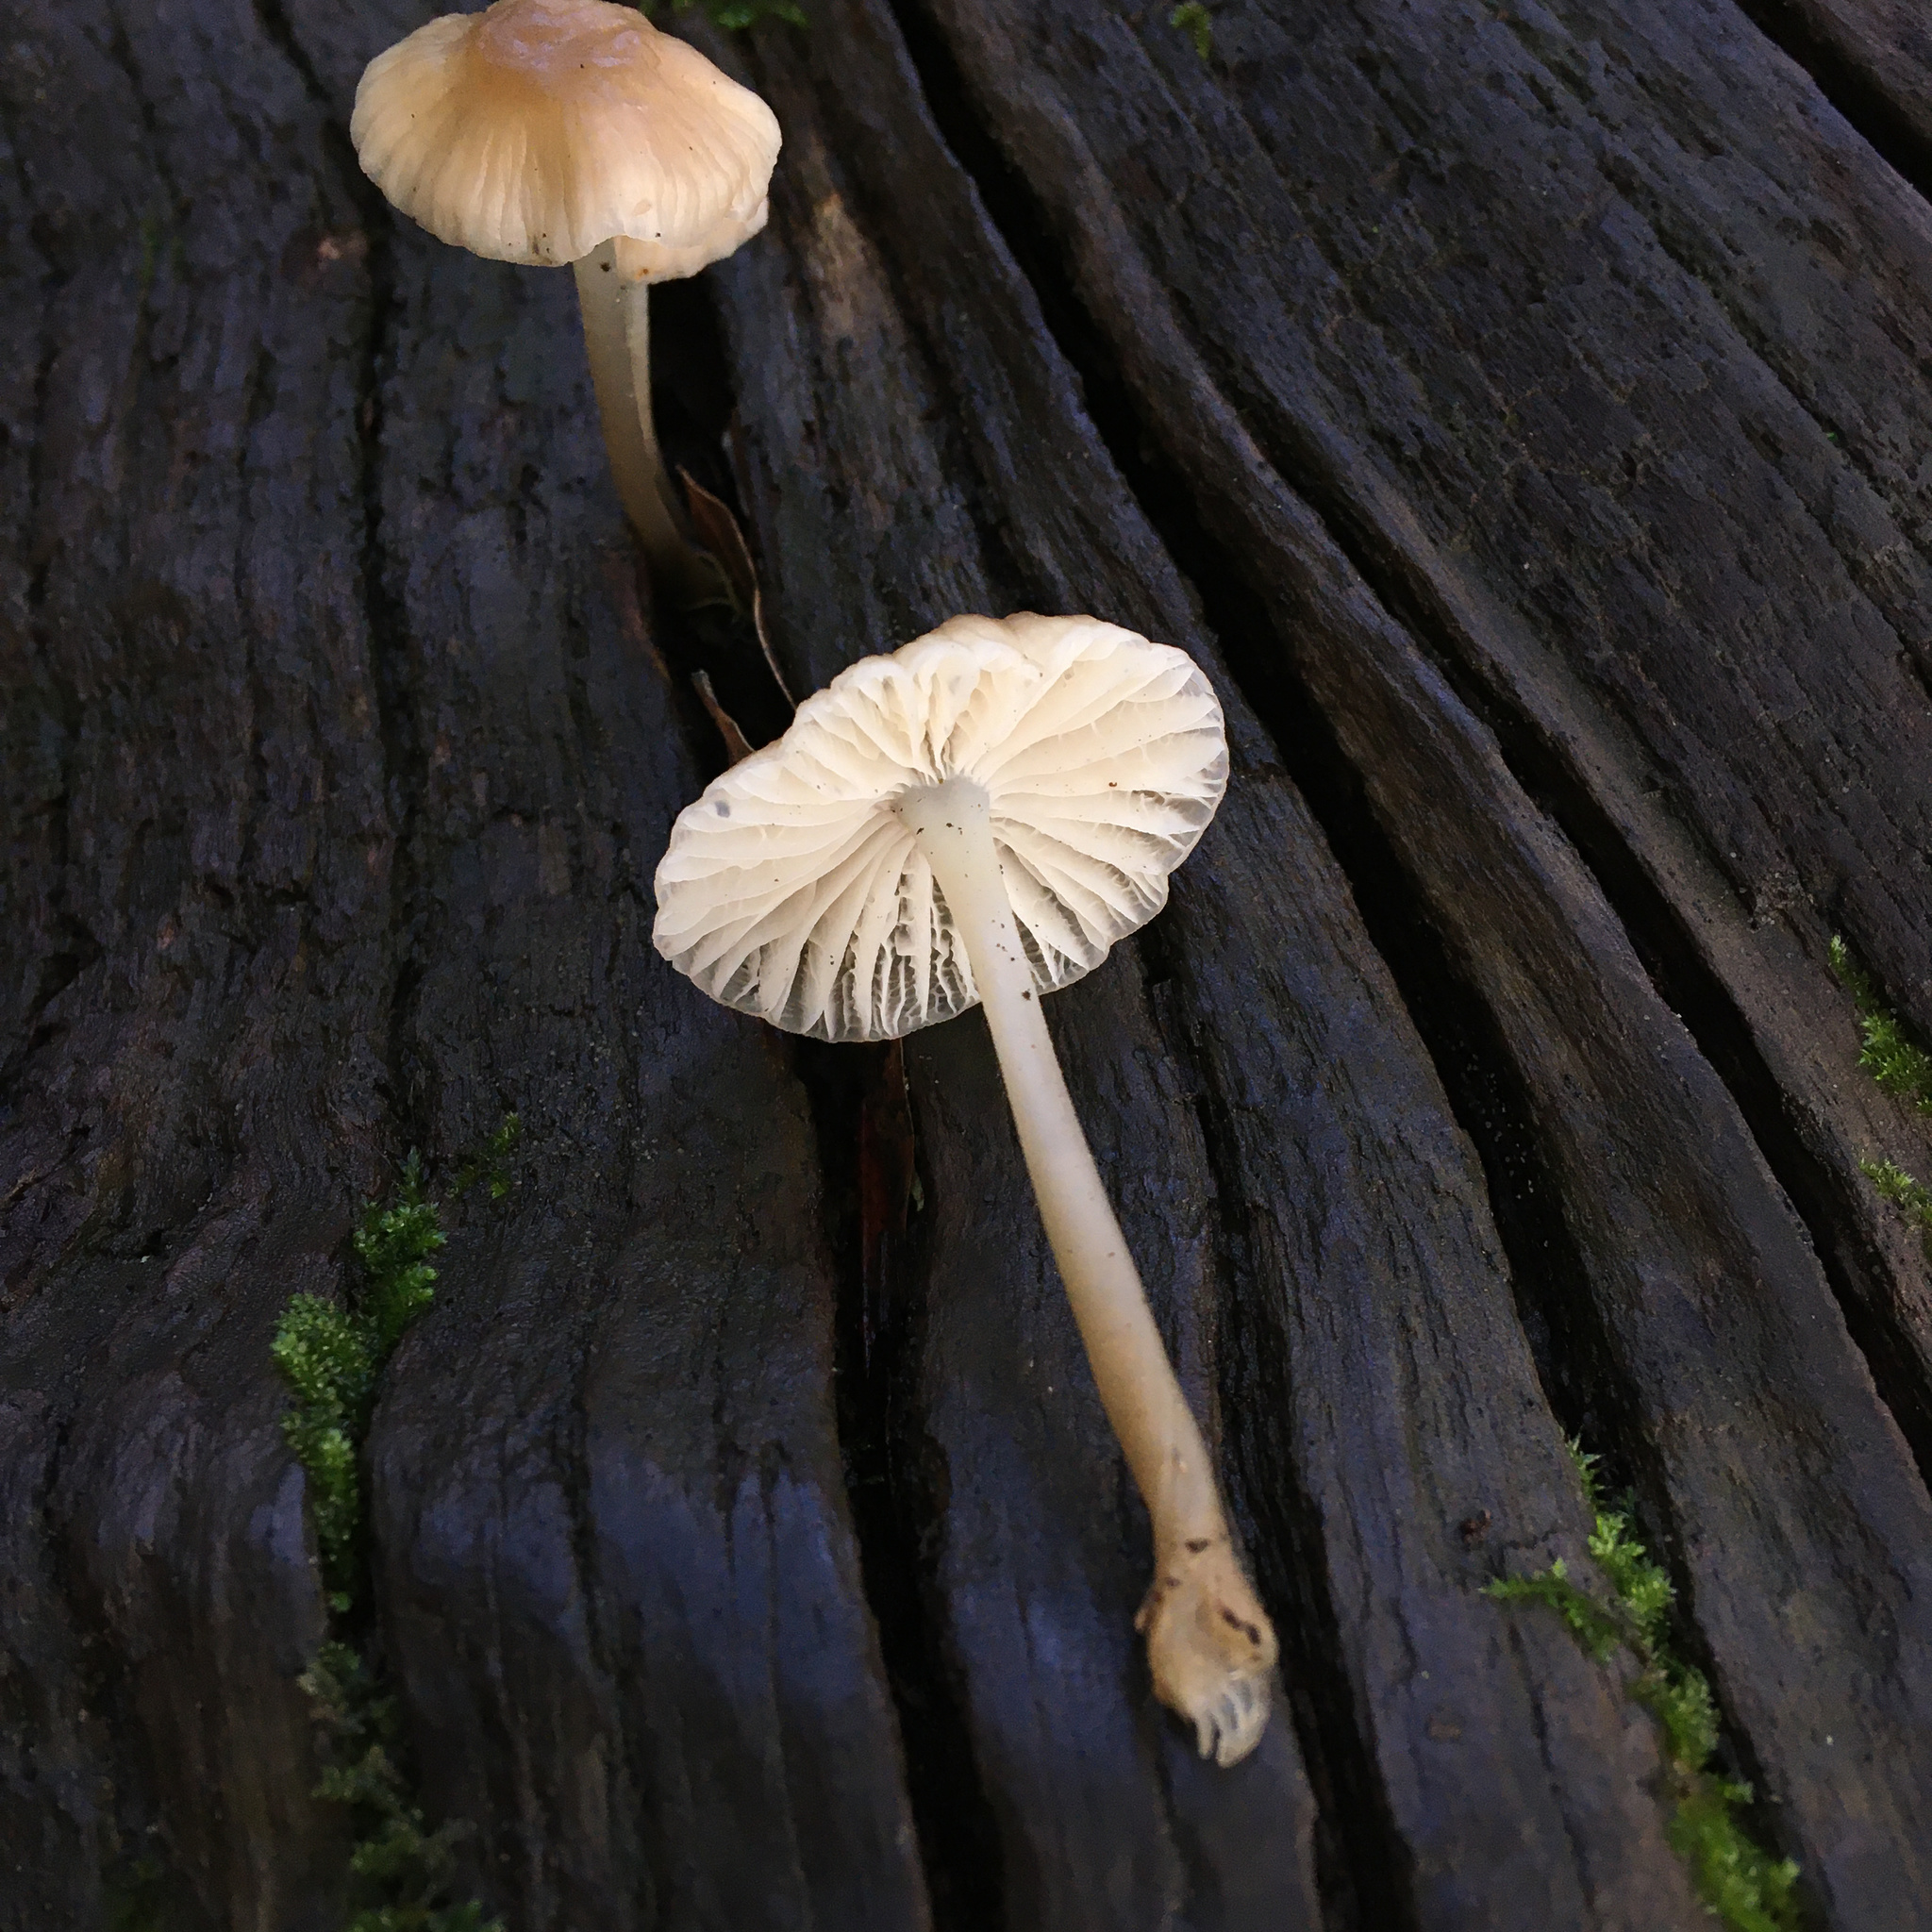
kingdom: Fungi
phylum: Basidiomycota
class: Agaricomycetes
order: Agaricales
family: Marasmiaceae
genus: Marasmius
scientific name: Marasmius calhouniae
